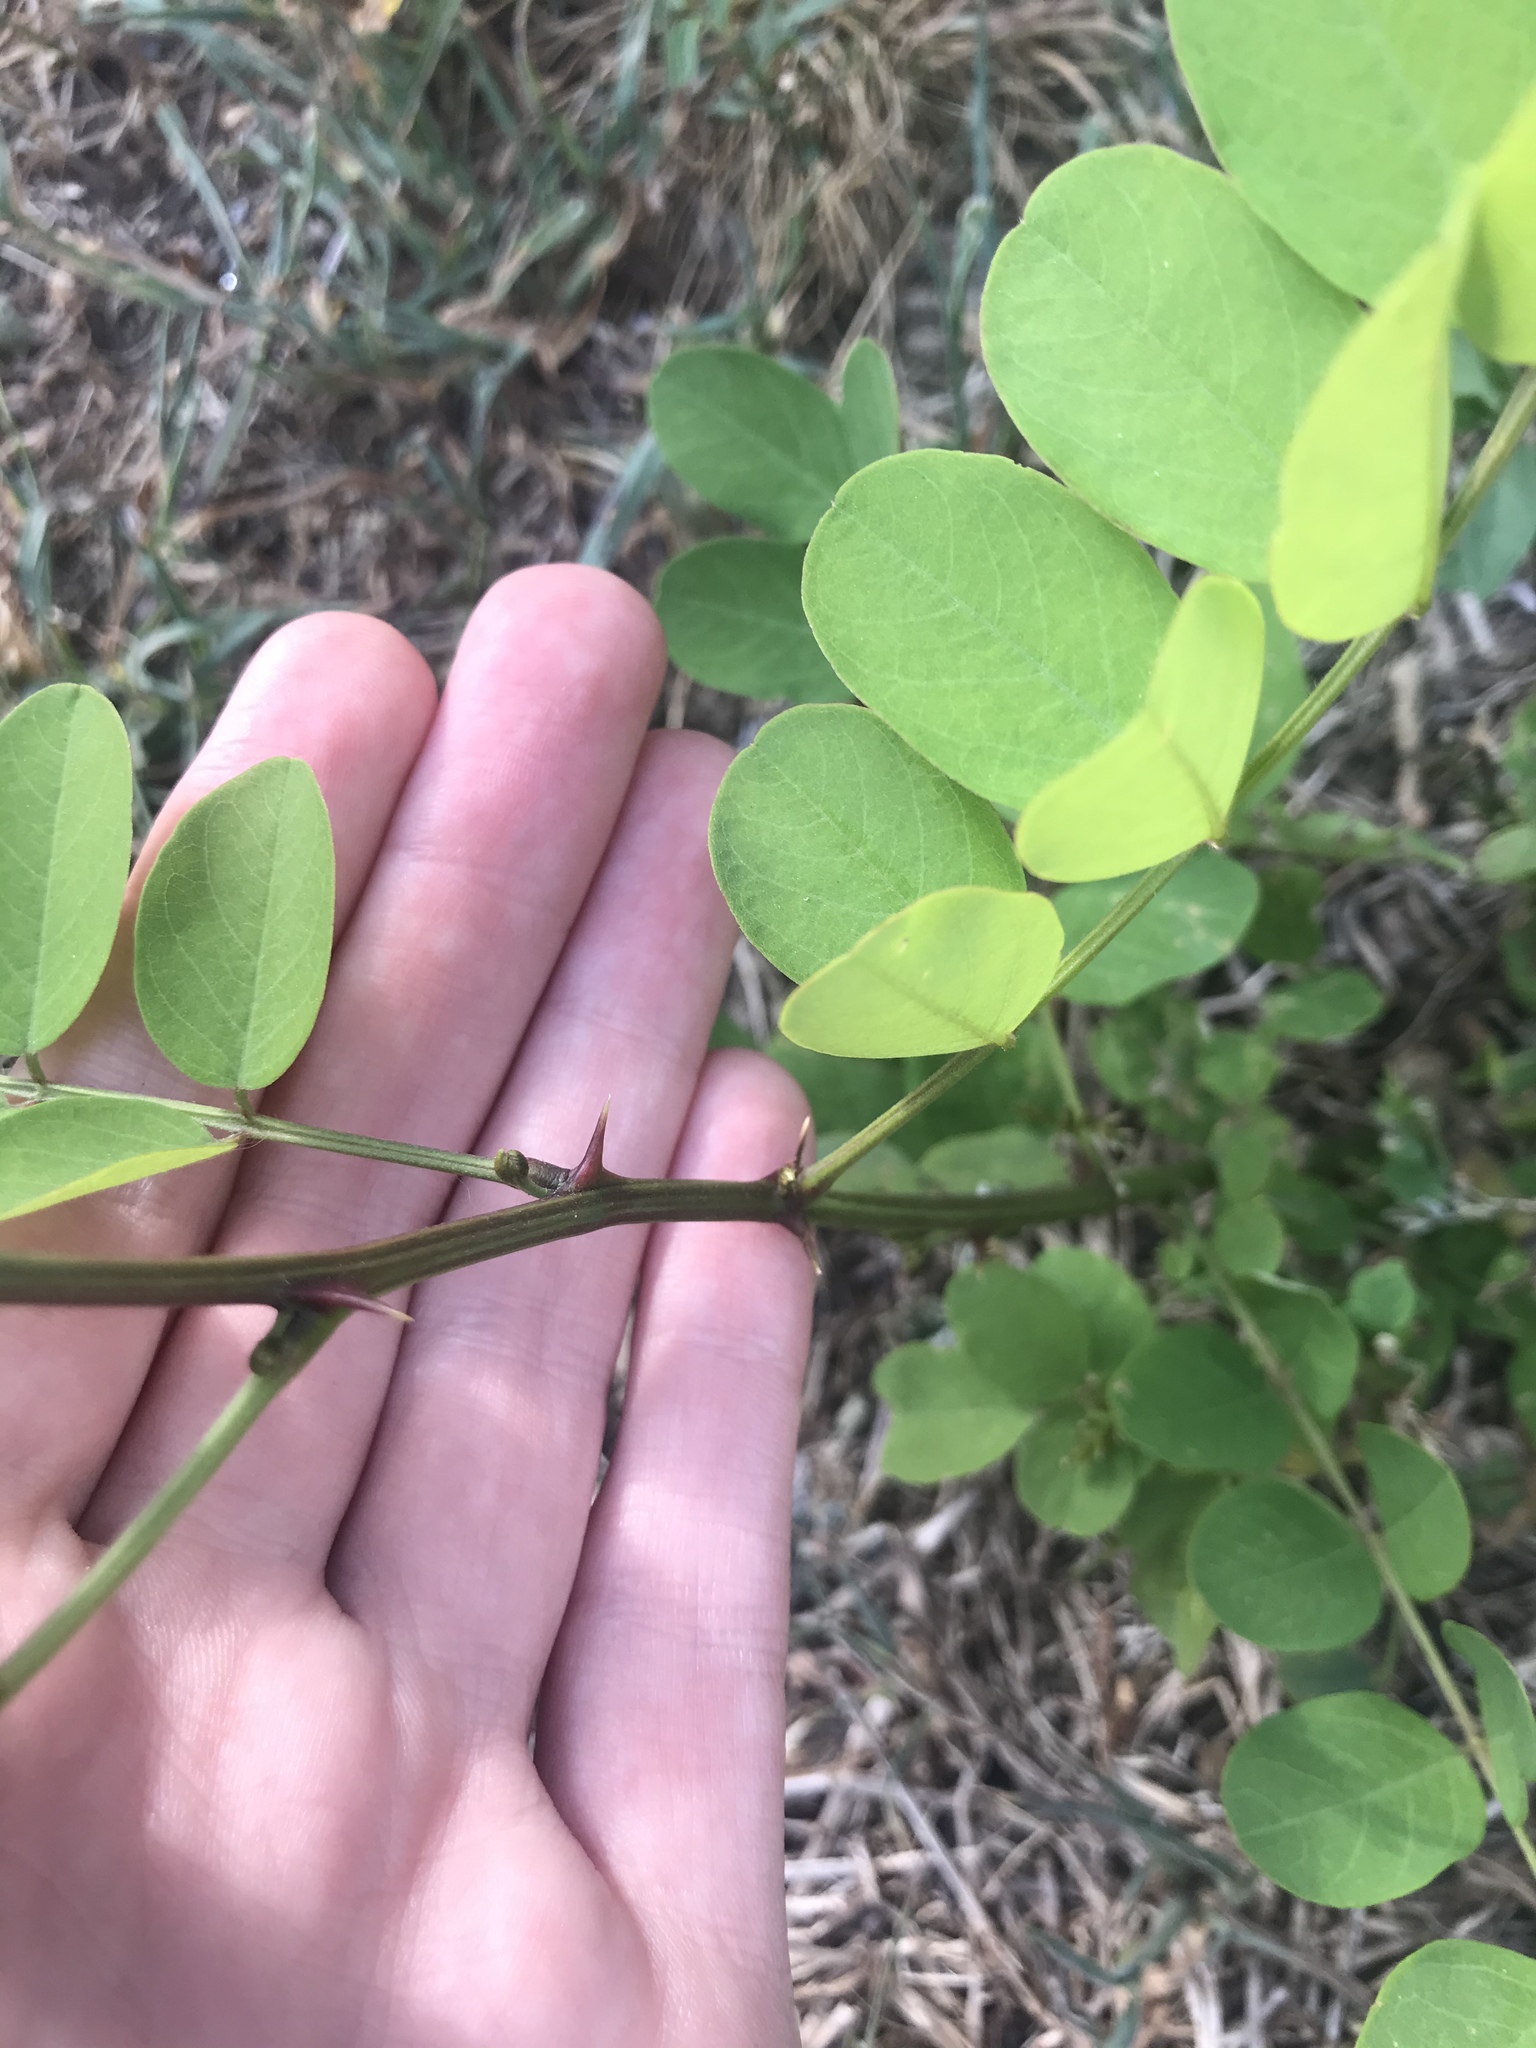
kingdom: Plantae
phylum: Tracheophyta
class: Magnoliopsida
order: Fabales
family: Fabaceae
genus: Robinia
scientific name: Robinia pseudoacacia
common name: Black locust
